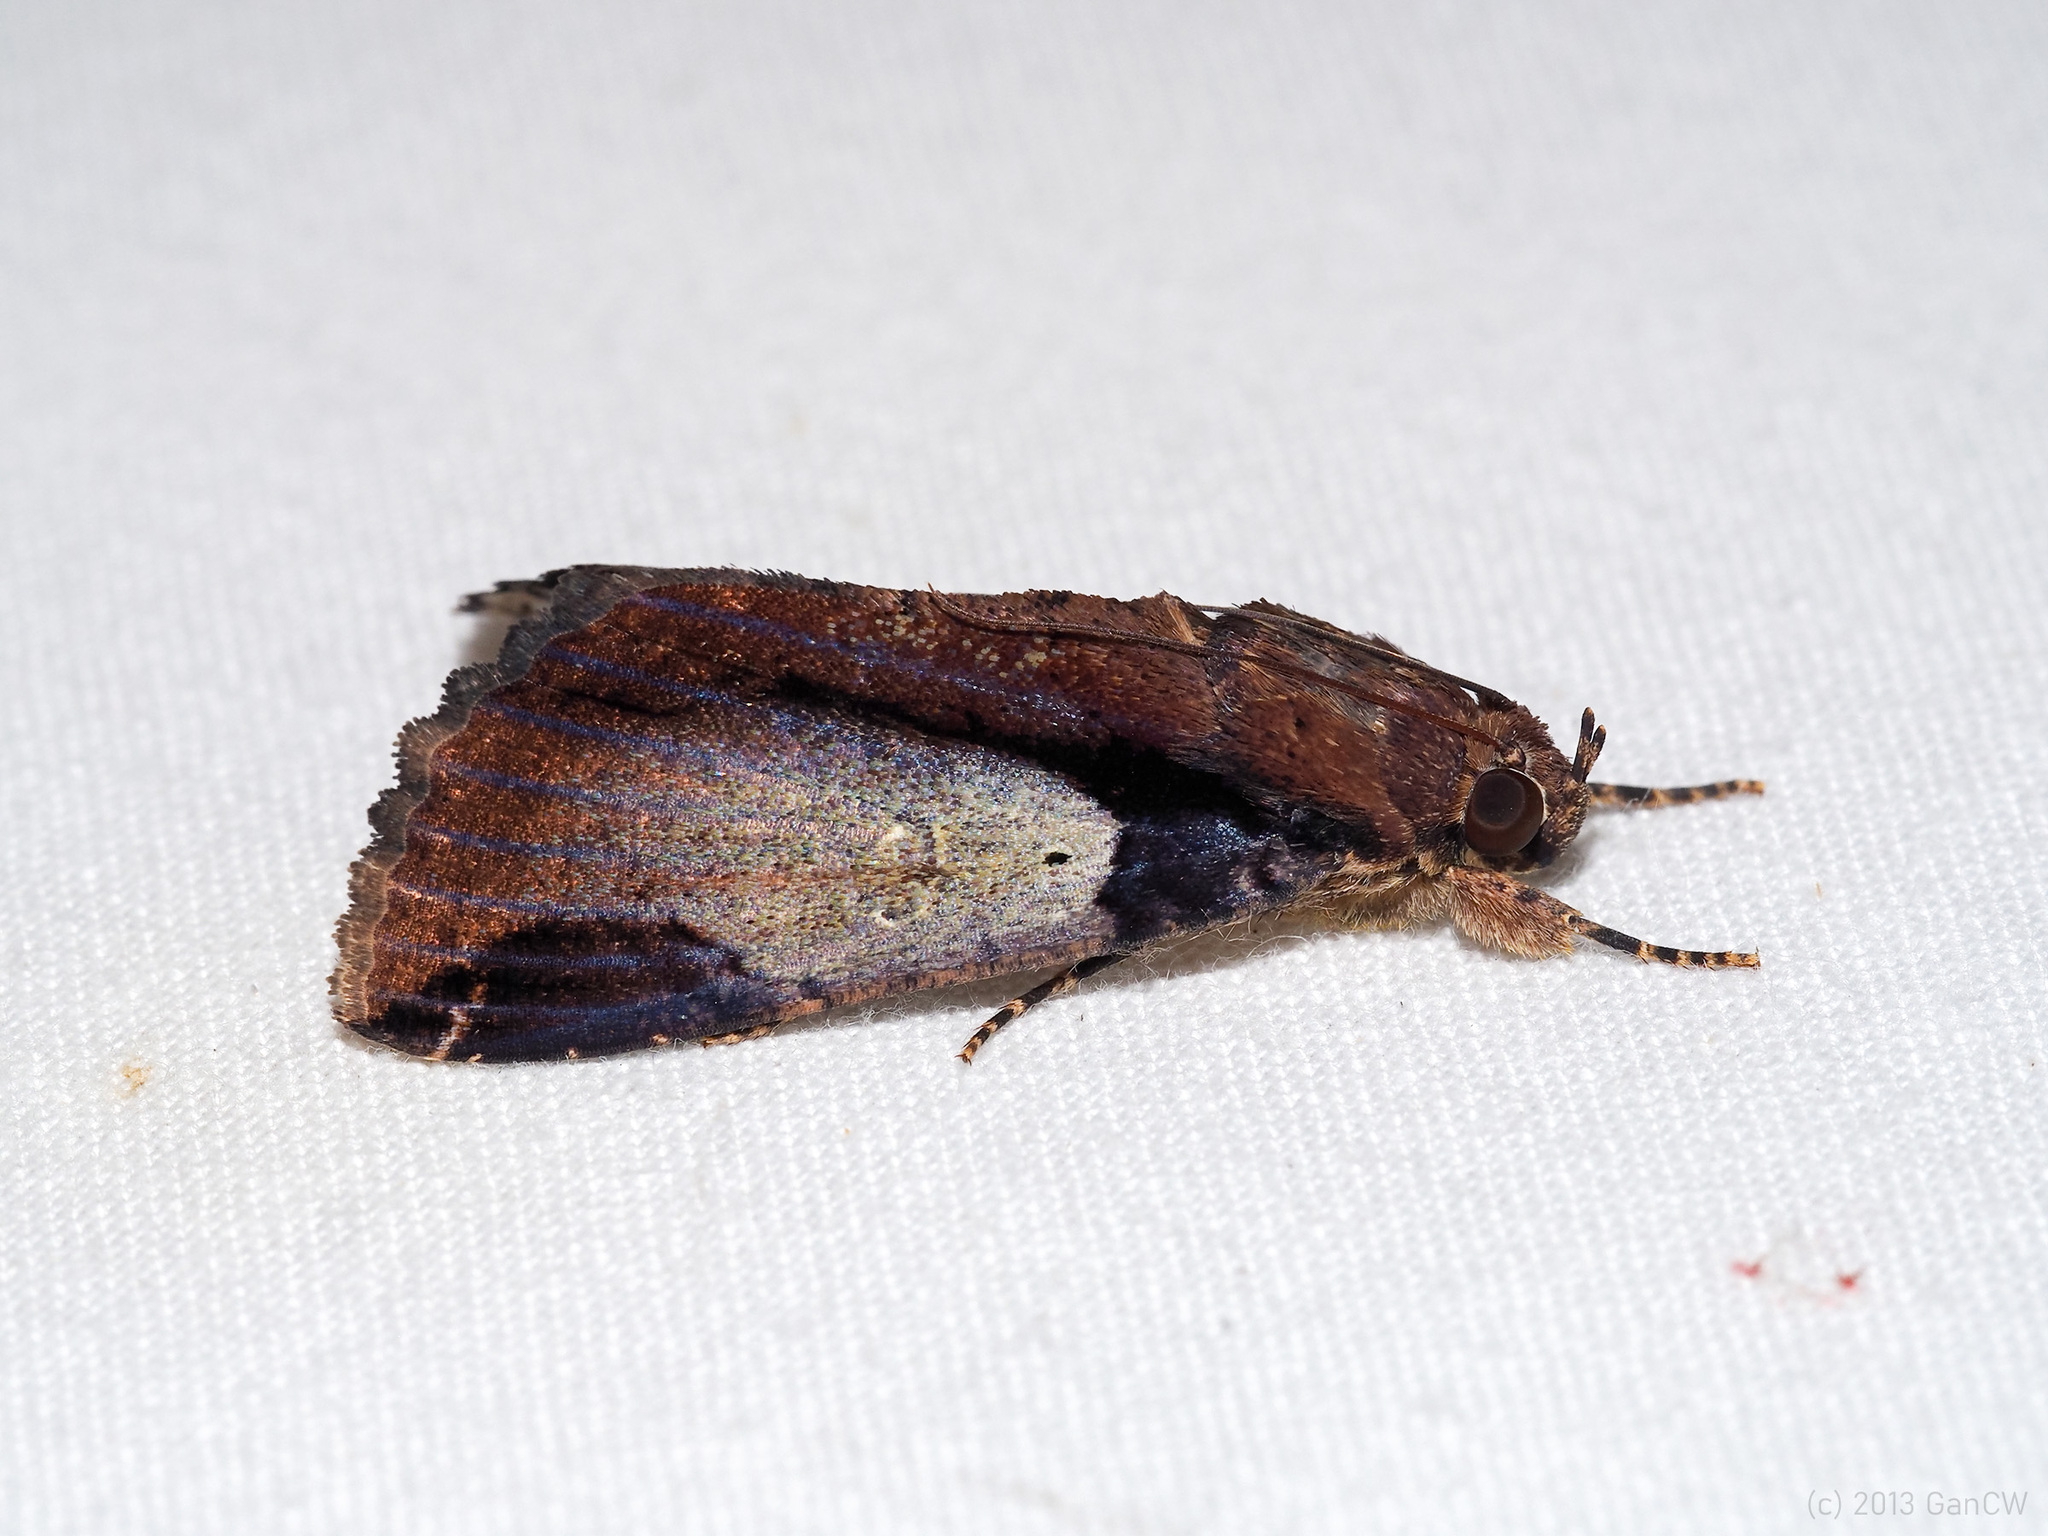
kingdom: Animalia
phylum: Arthropoda
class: Insecta
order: Lepidoptera
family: Erebidae
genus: Ercheia
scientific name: Ercheia cyllaria
